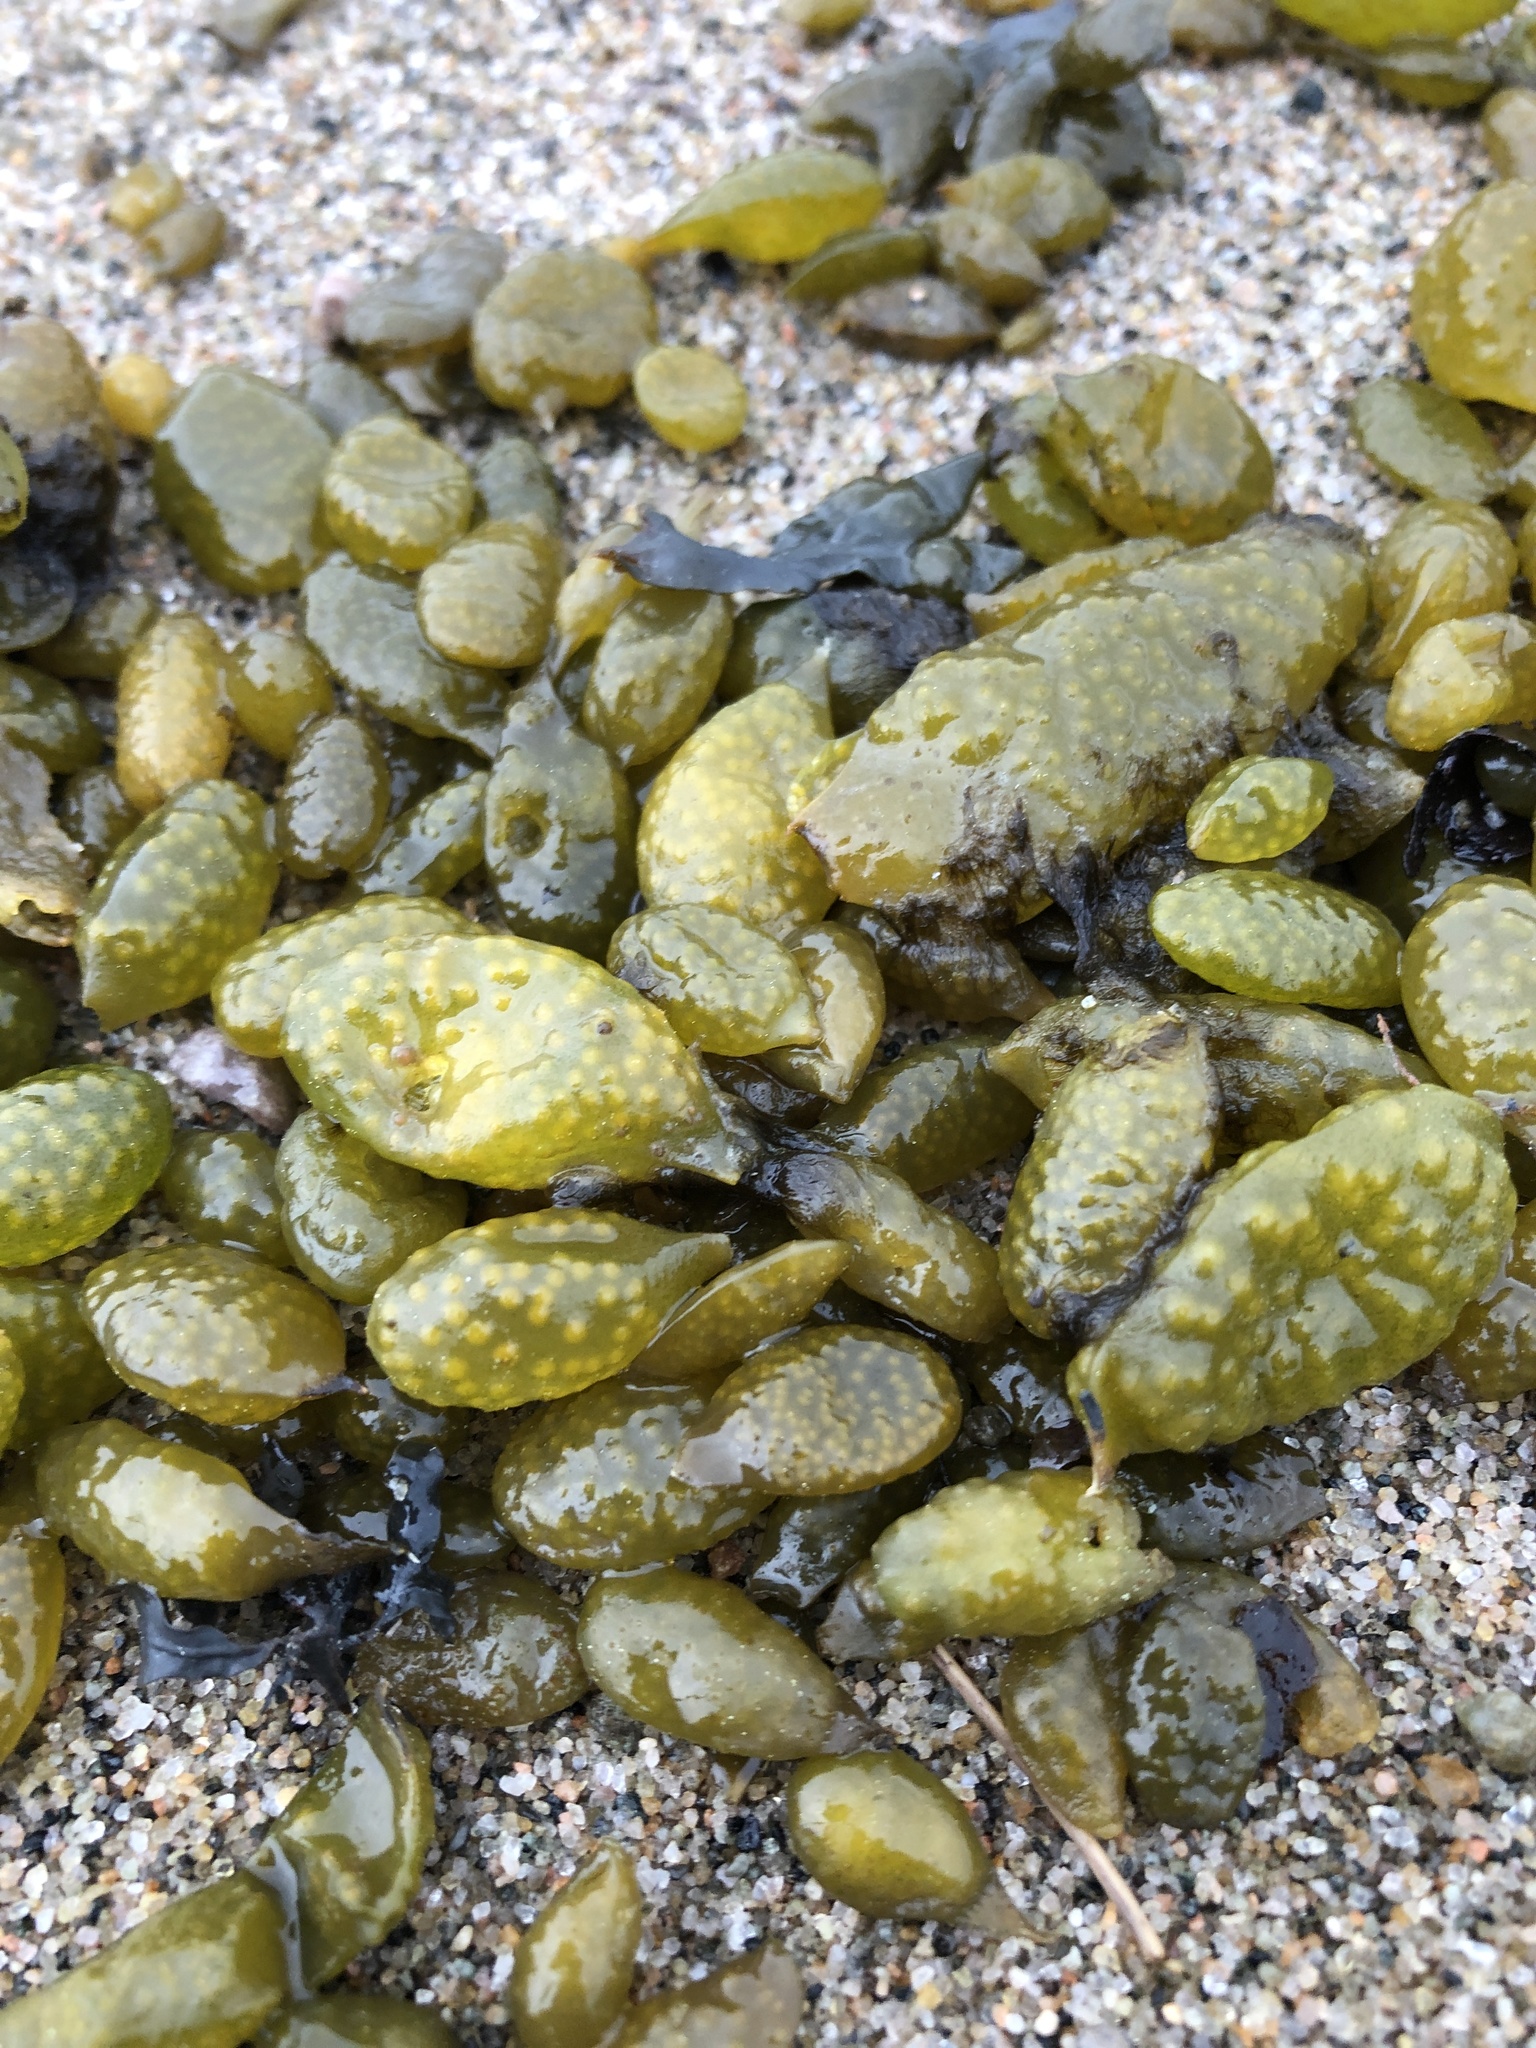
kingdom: Chromista
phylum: Ochrophyta
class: Phaeophyceae
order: Fucales
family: Fucaceae
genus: Ascophyllum
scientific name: Ascophyllum nodosum
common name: Knotted wrack
